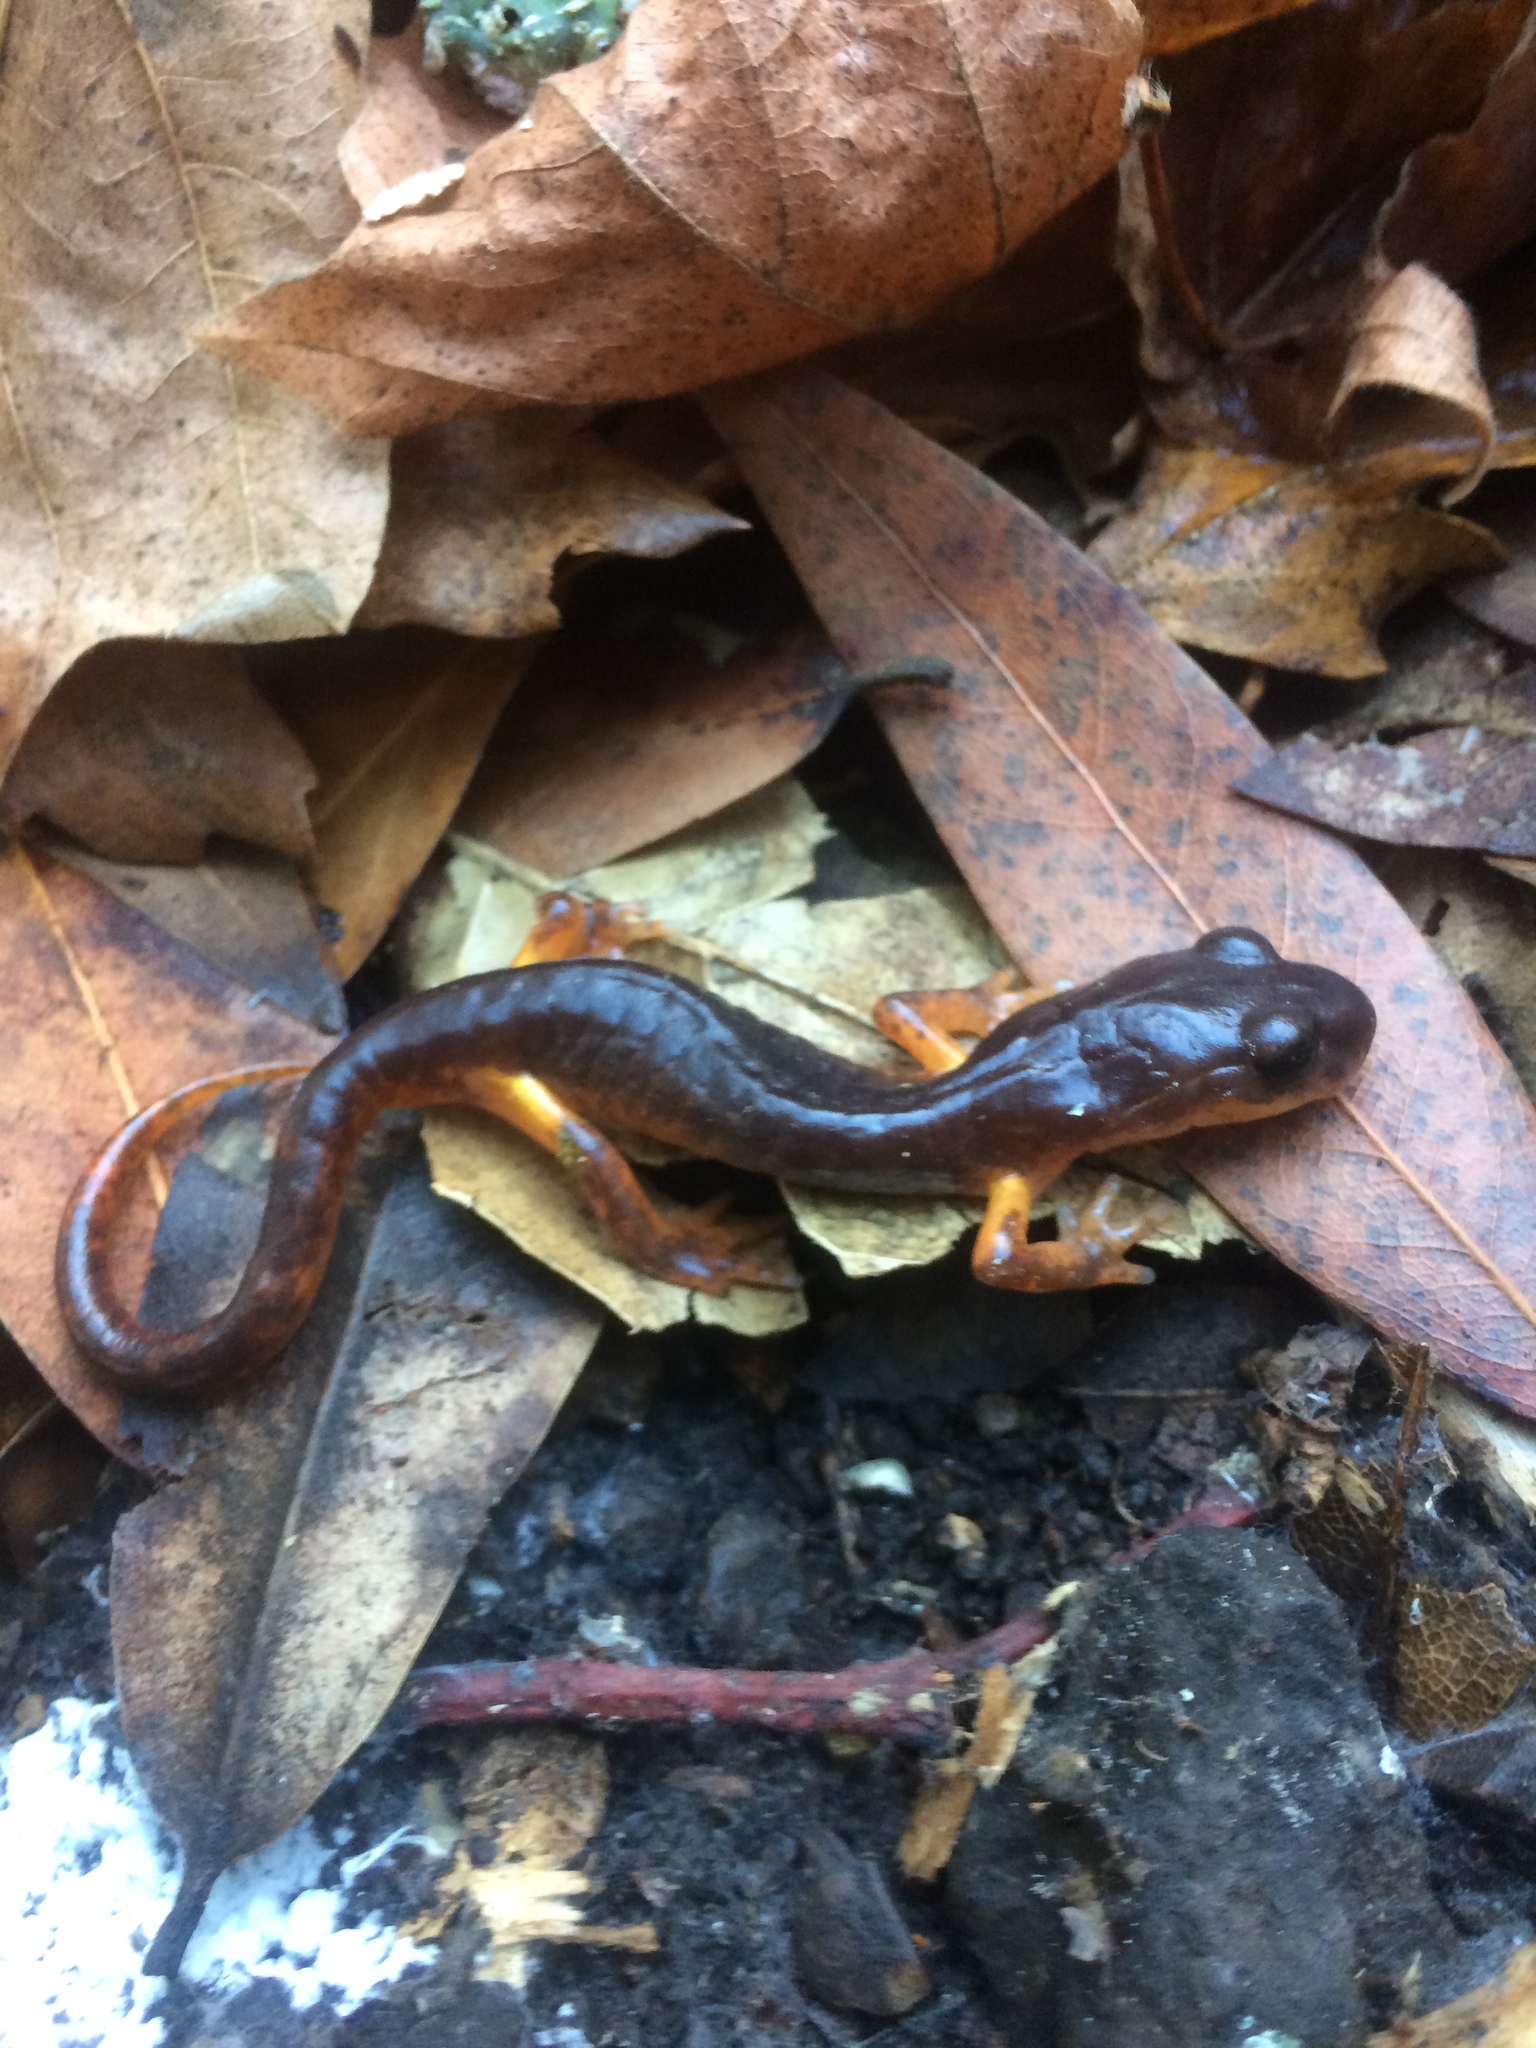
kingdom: Animalia
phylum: Chordata
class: Amphibia
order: Caudata
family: Plethodontidae
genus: Ensatina
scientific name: Ensatina eschscholtzii
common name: Ensatina
